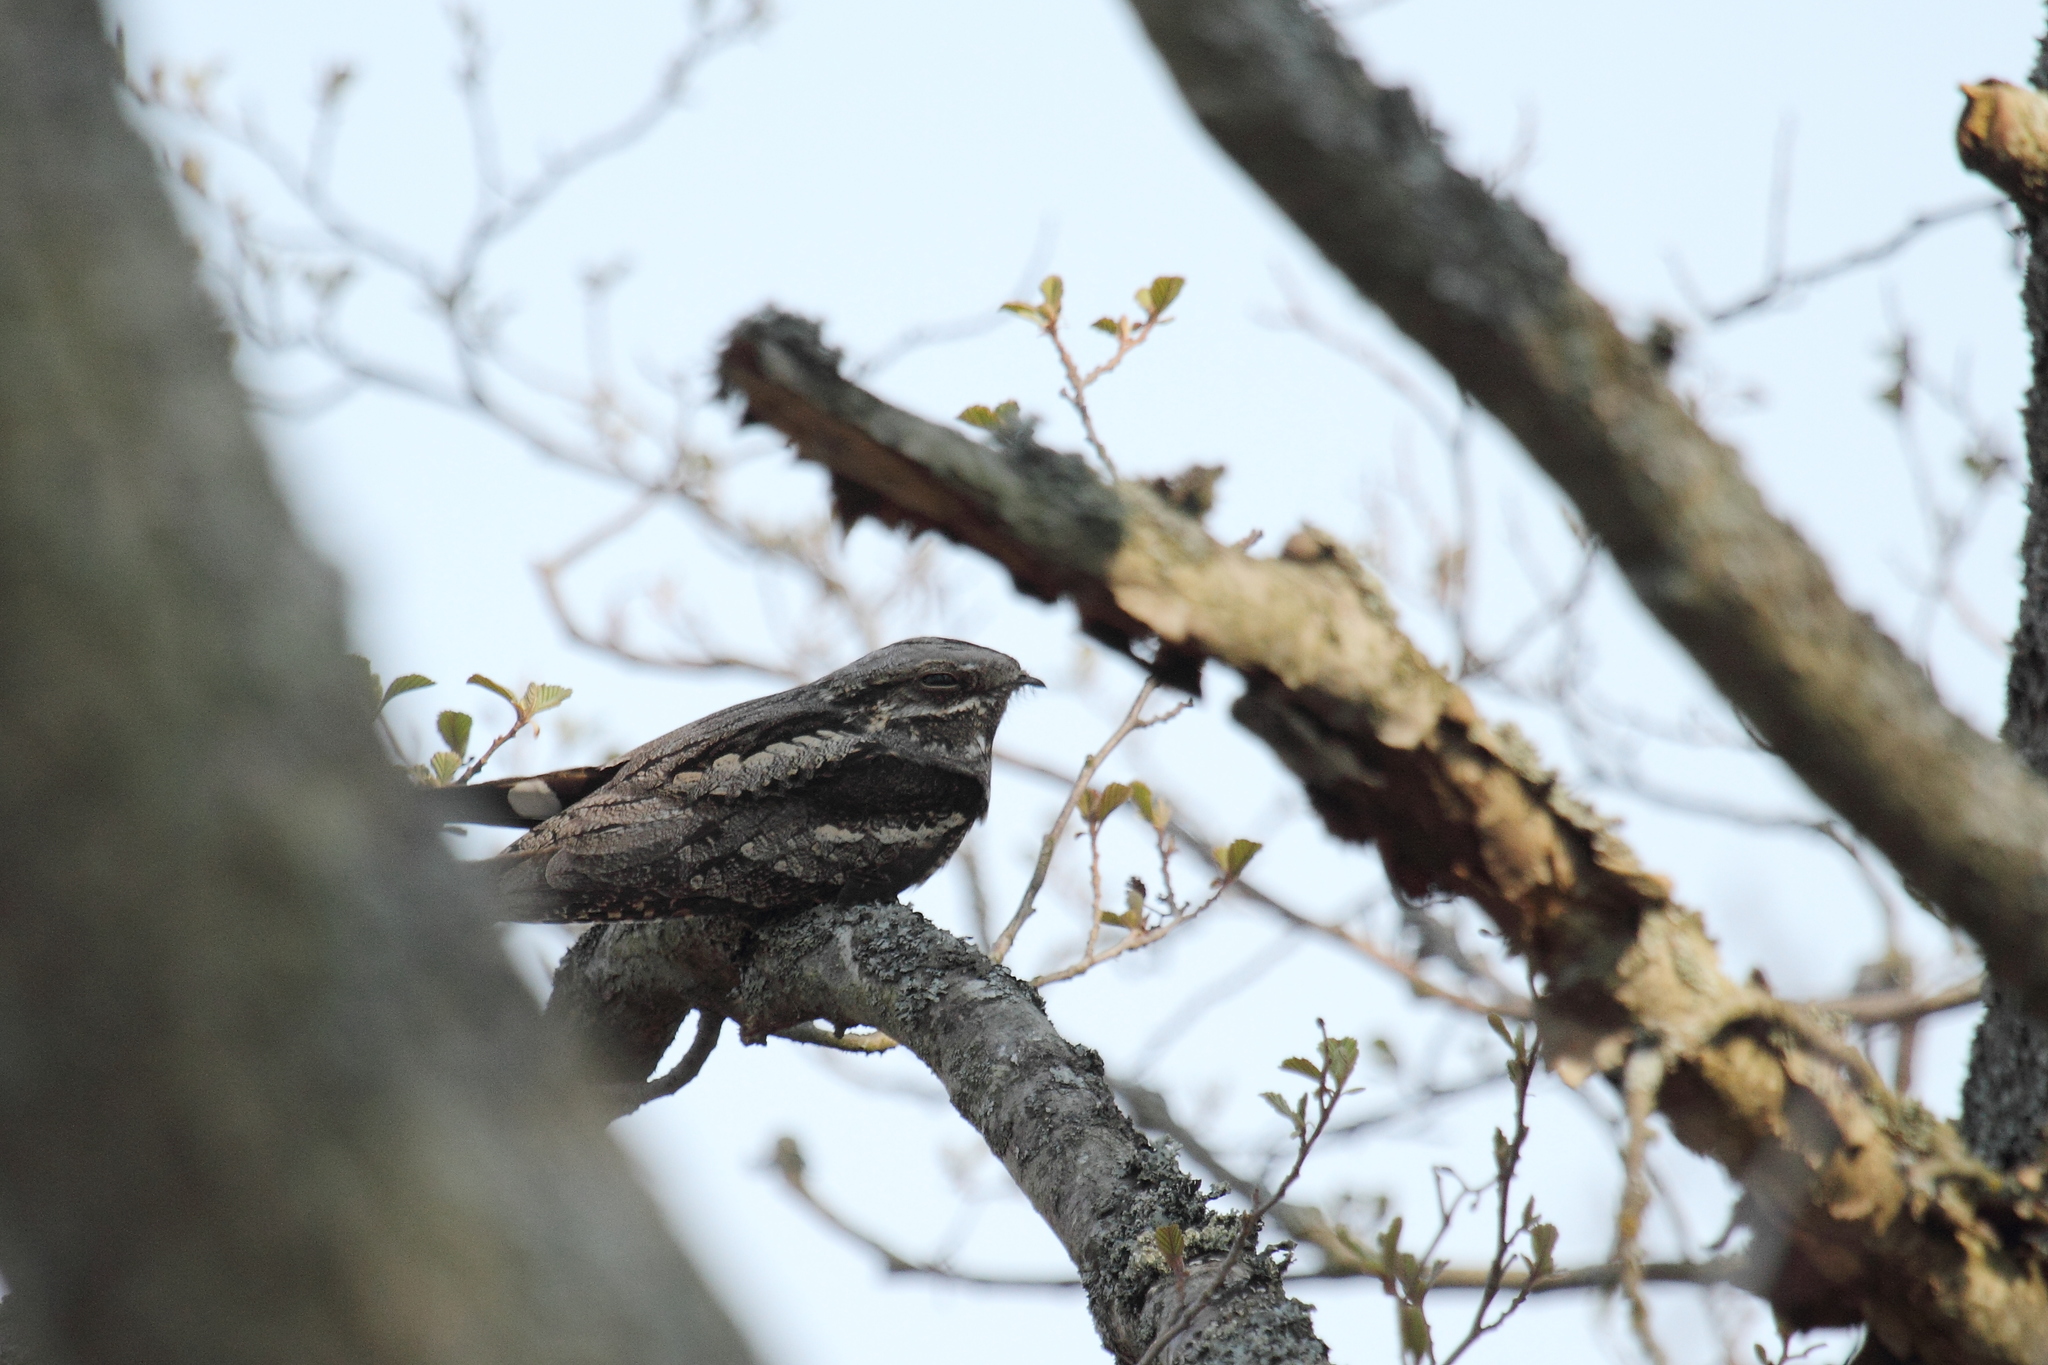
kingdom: Animalia
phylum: Chordata
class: Aves
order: Caprimulgiformes
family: Caprimulgidae
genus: Caprimulgus
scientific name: Caprimulgus europaeus
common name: European nightjar
